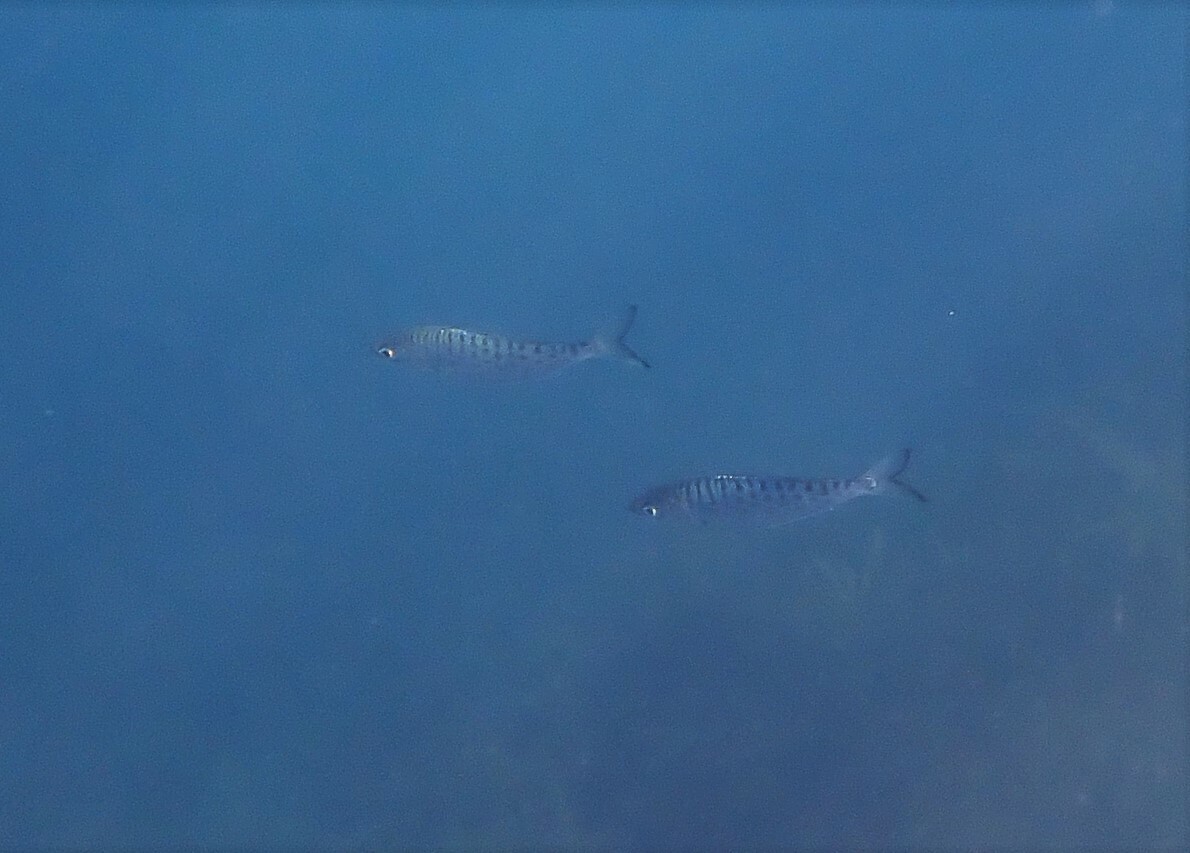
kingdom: Animalia
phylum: Chordata
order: Perciformes
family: Arripidae
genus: Arripis
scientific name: Arripis trutta
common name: Kahawai
